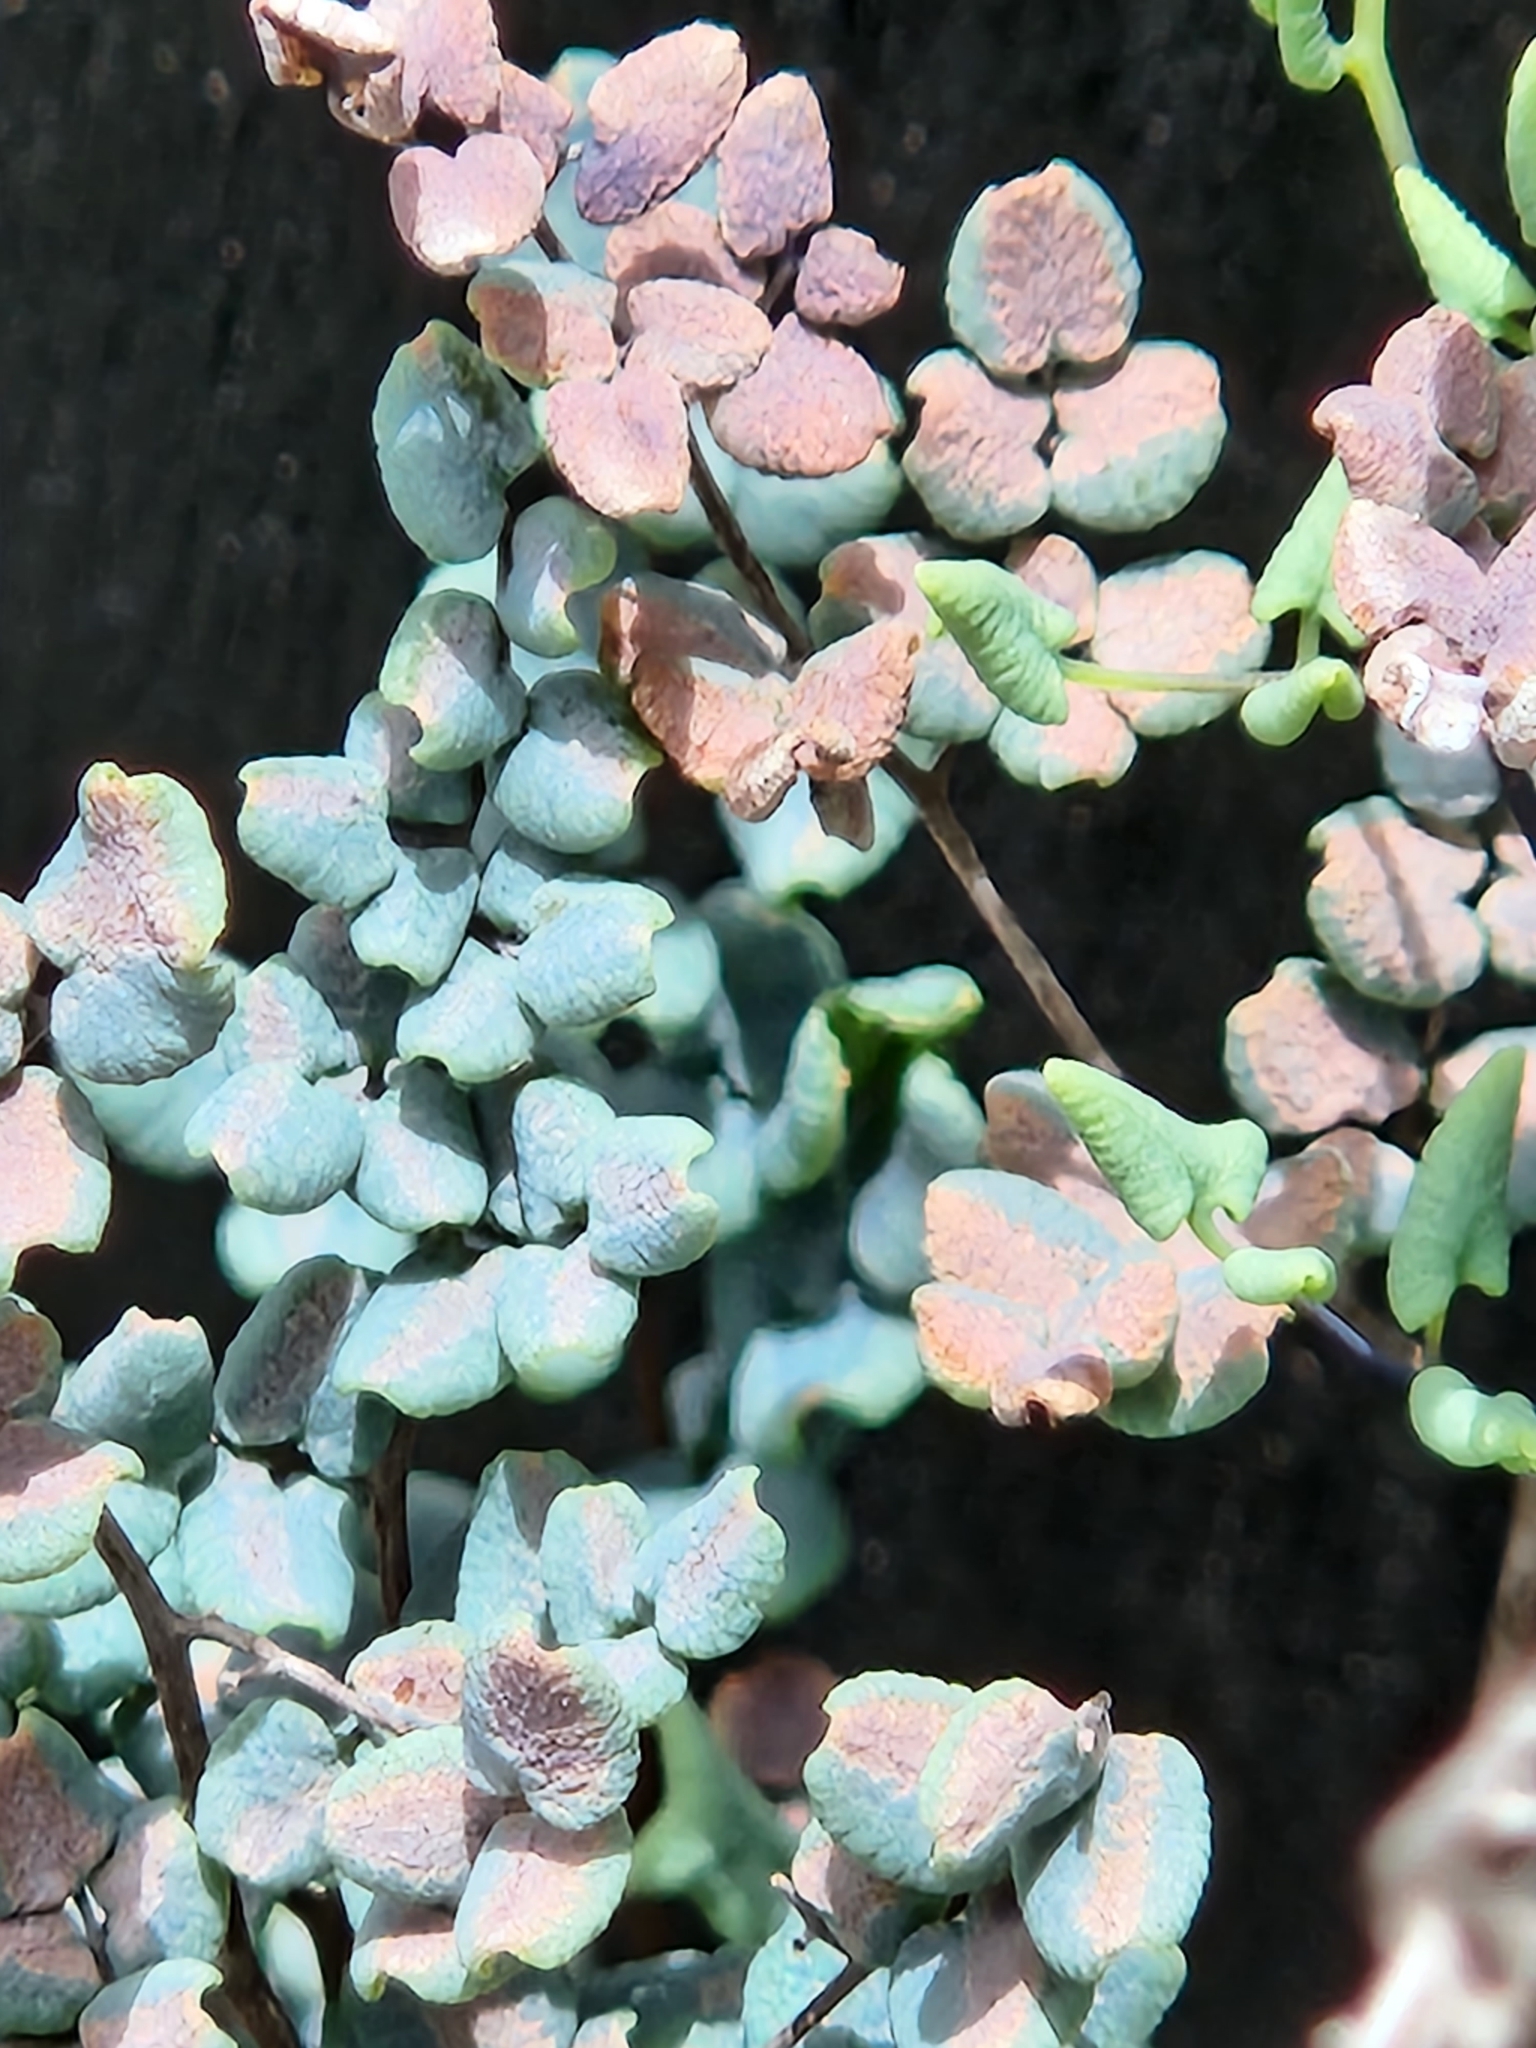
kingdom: Plantae
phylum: Tracheophyta
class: Polypodiopsida
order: Polypodiales
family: Pteridaceae
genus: Argyrochosma
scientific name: Argyrochosma microphylla
